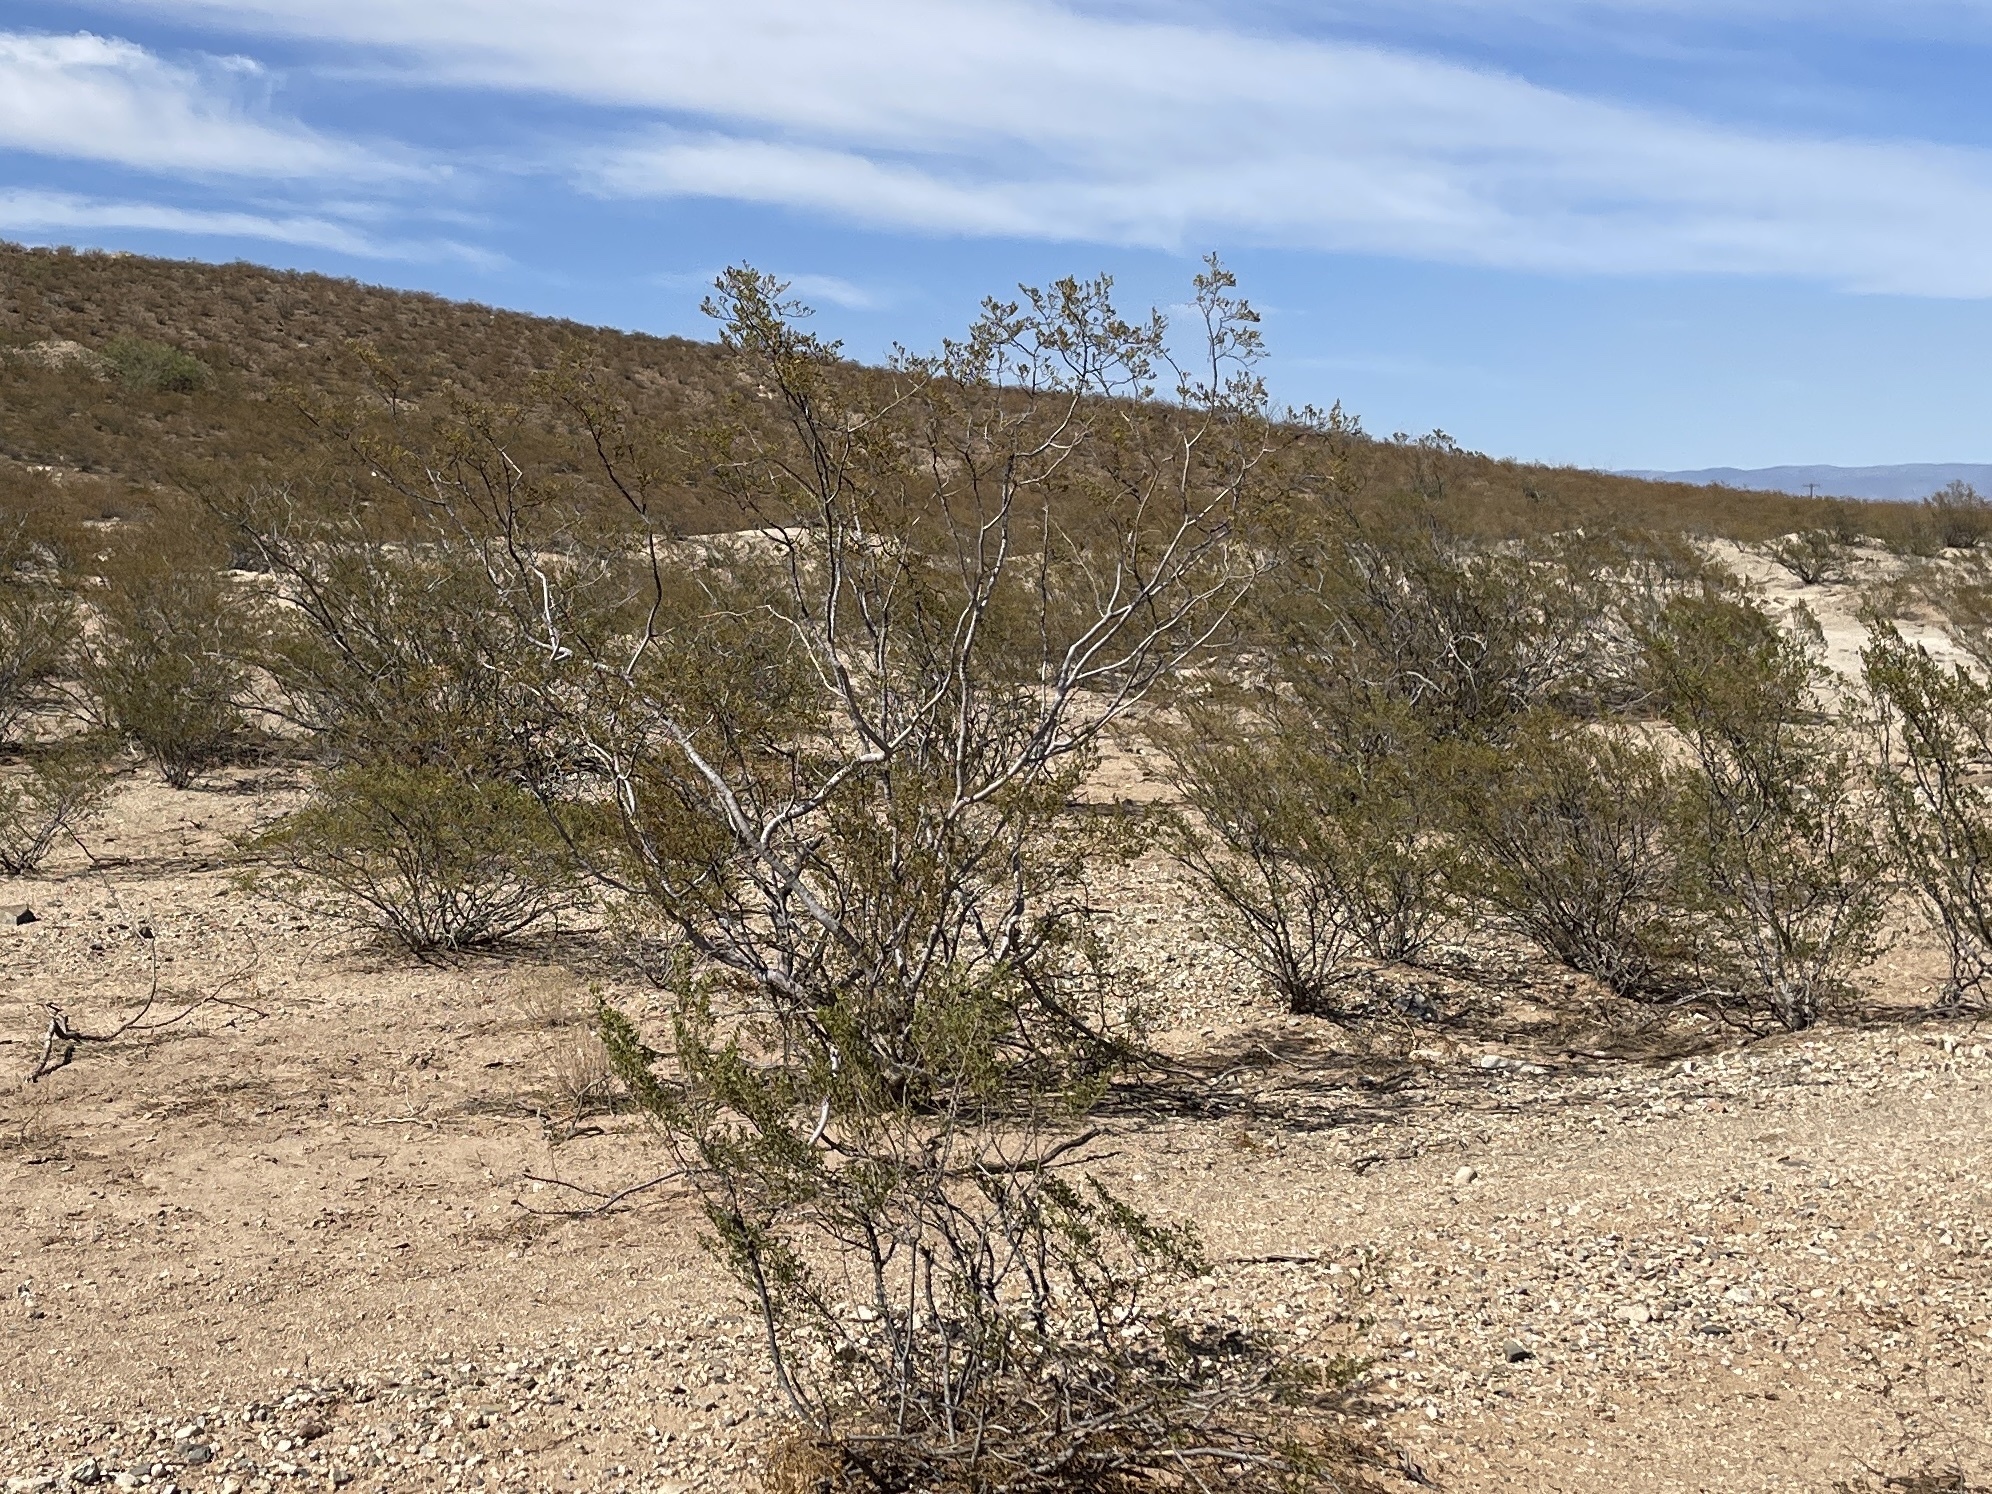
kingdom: Plantae
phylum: Tracheophyta
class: Magnoliopsida
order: Zygophyllales
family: Zygophyllaceae
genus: Larrea
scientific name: Larrea tridentata
